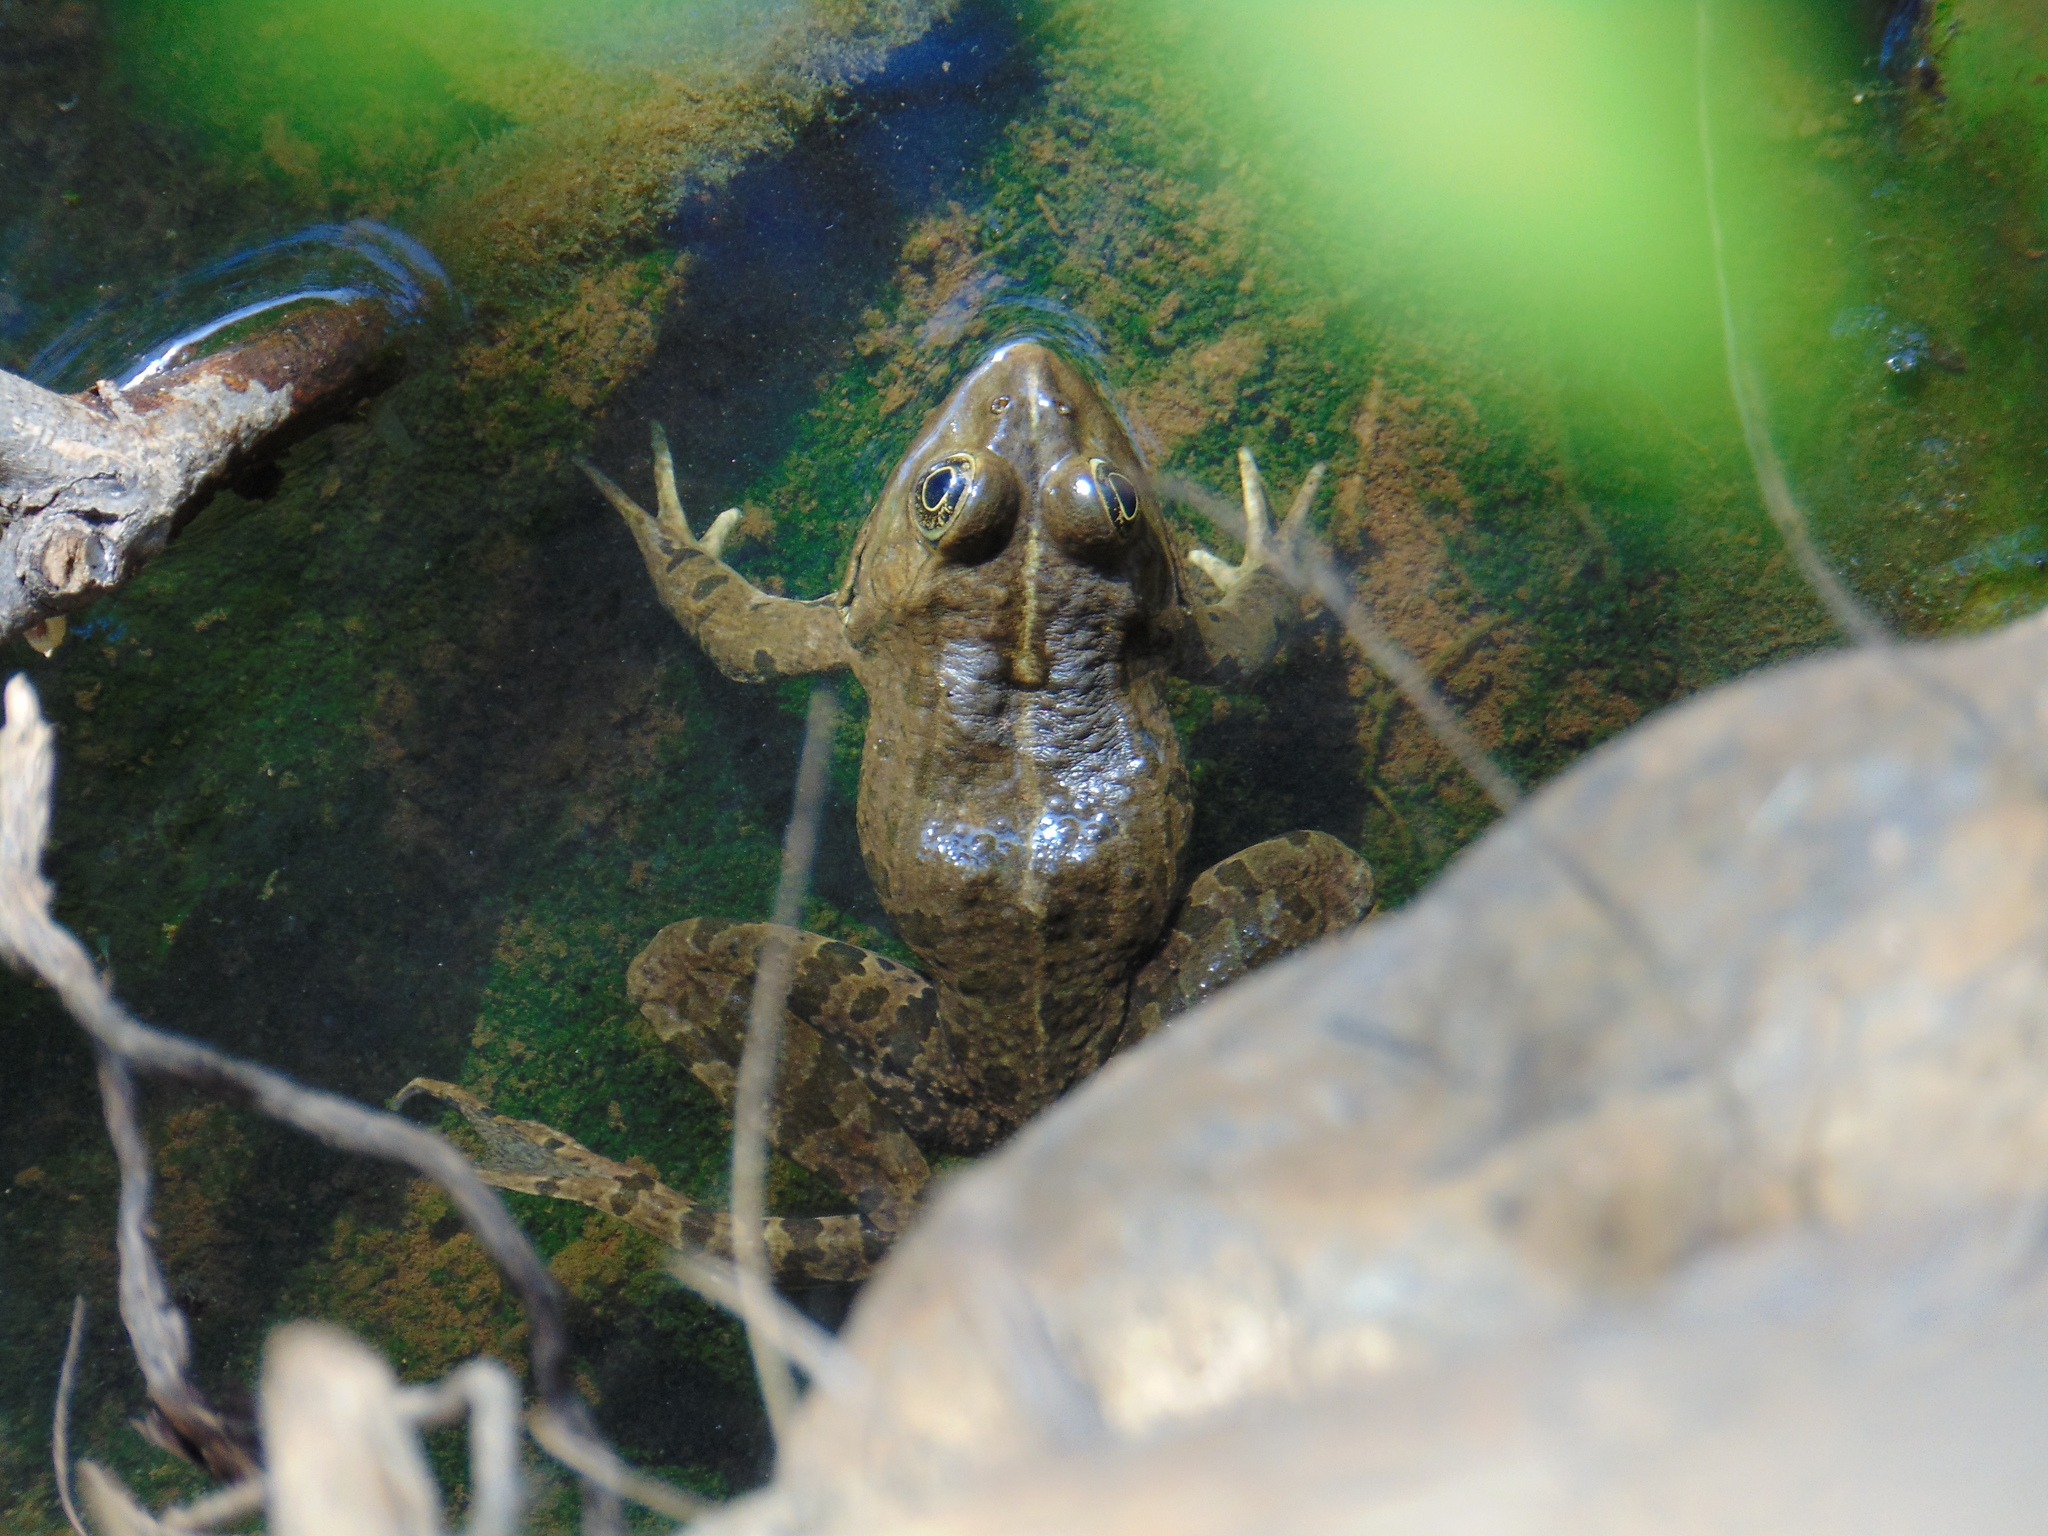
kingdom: Animalia
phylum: Chordata
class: Amphibia
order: Anura
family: Ranidae
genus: Pelophylax
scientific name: Pelophylax kurtmuelleri
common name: Balkan water frog
